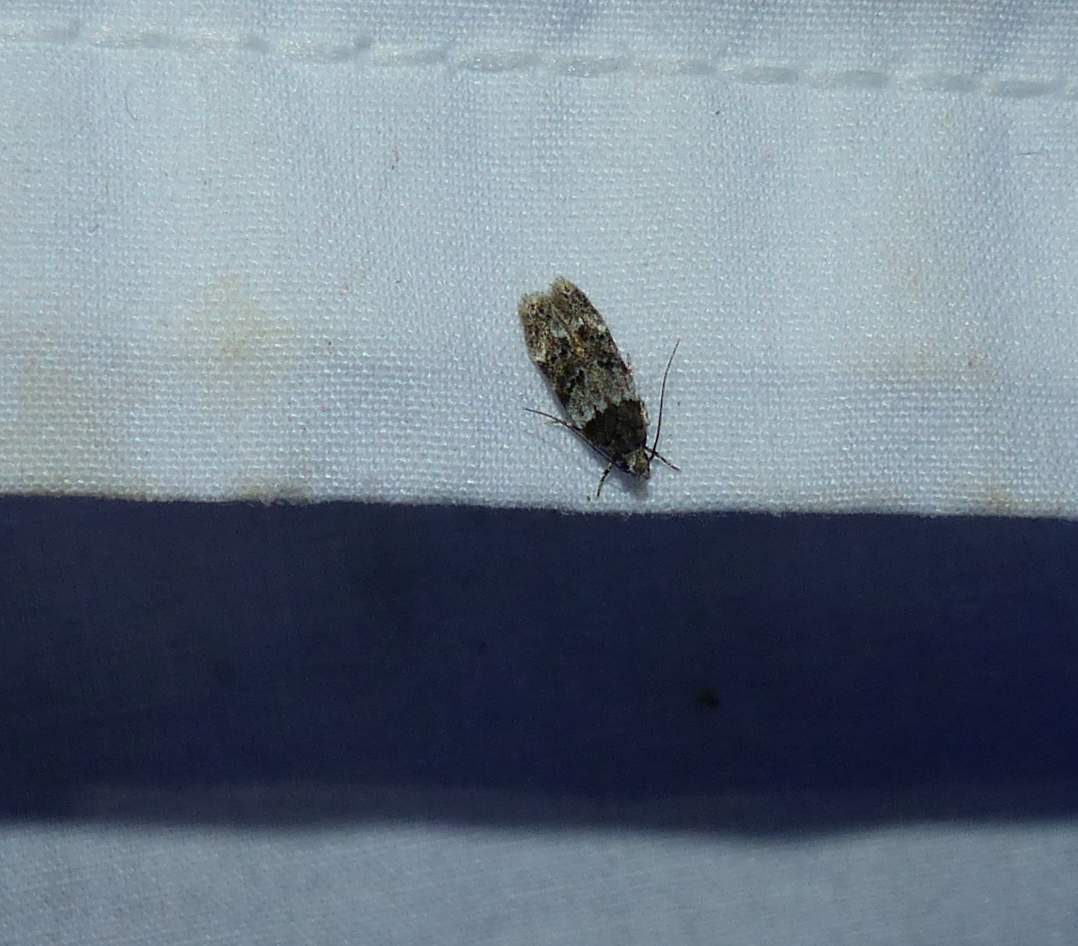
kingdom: Animalia
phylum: Arthropoda
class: Insecta
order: Lepidoptera
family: Gelechiidae
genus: Pubitelphusa
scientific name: Pubitelphusa latifasciella
